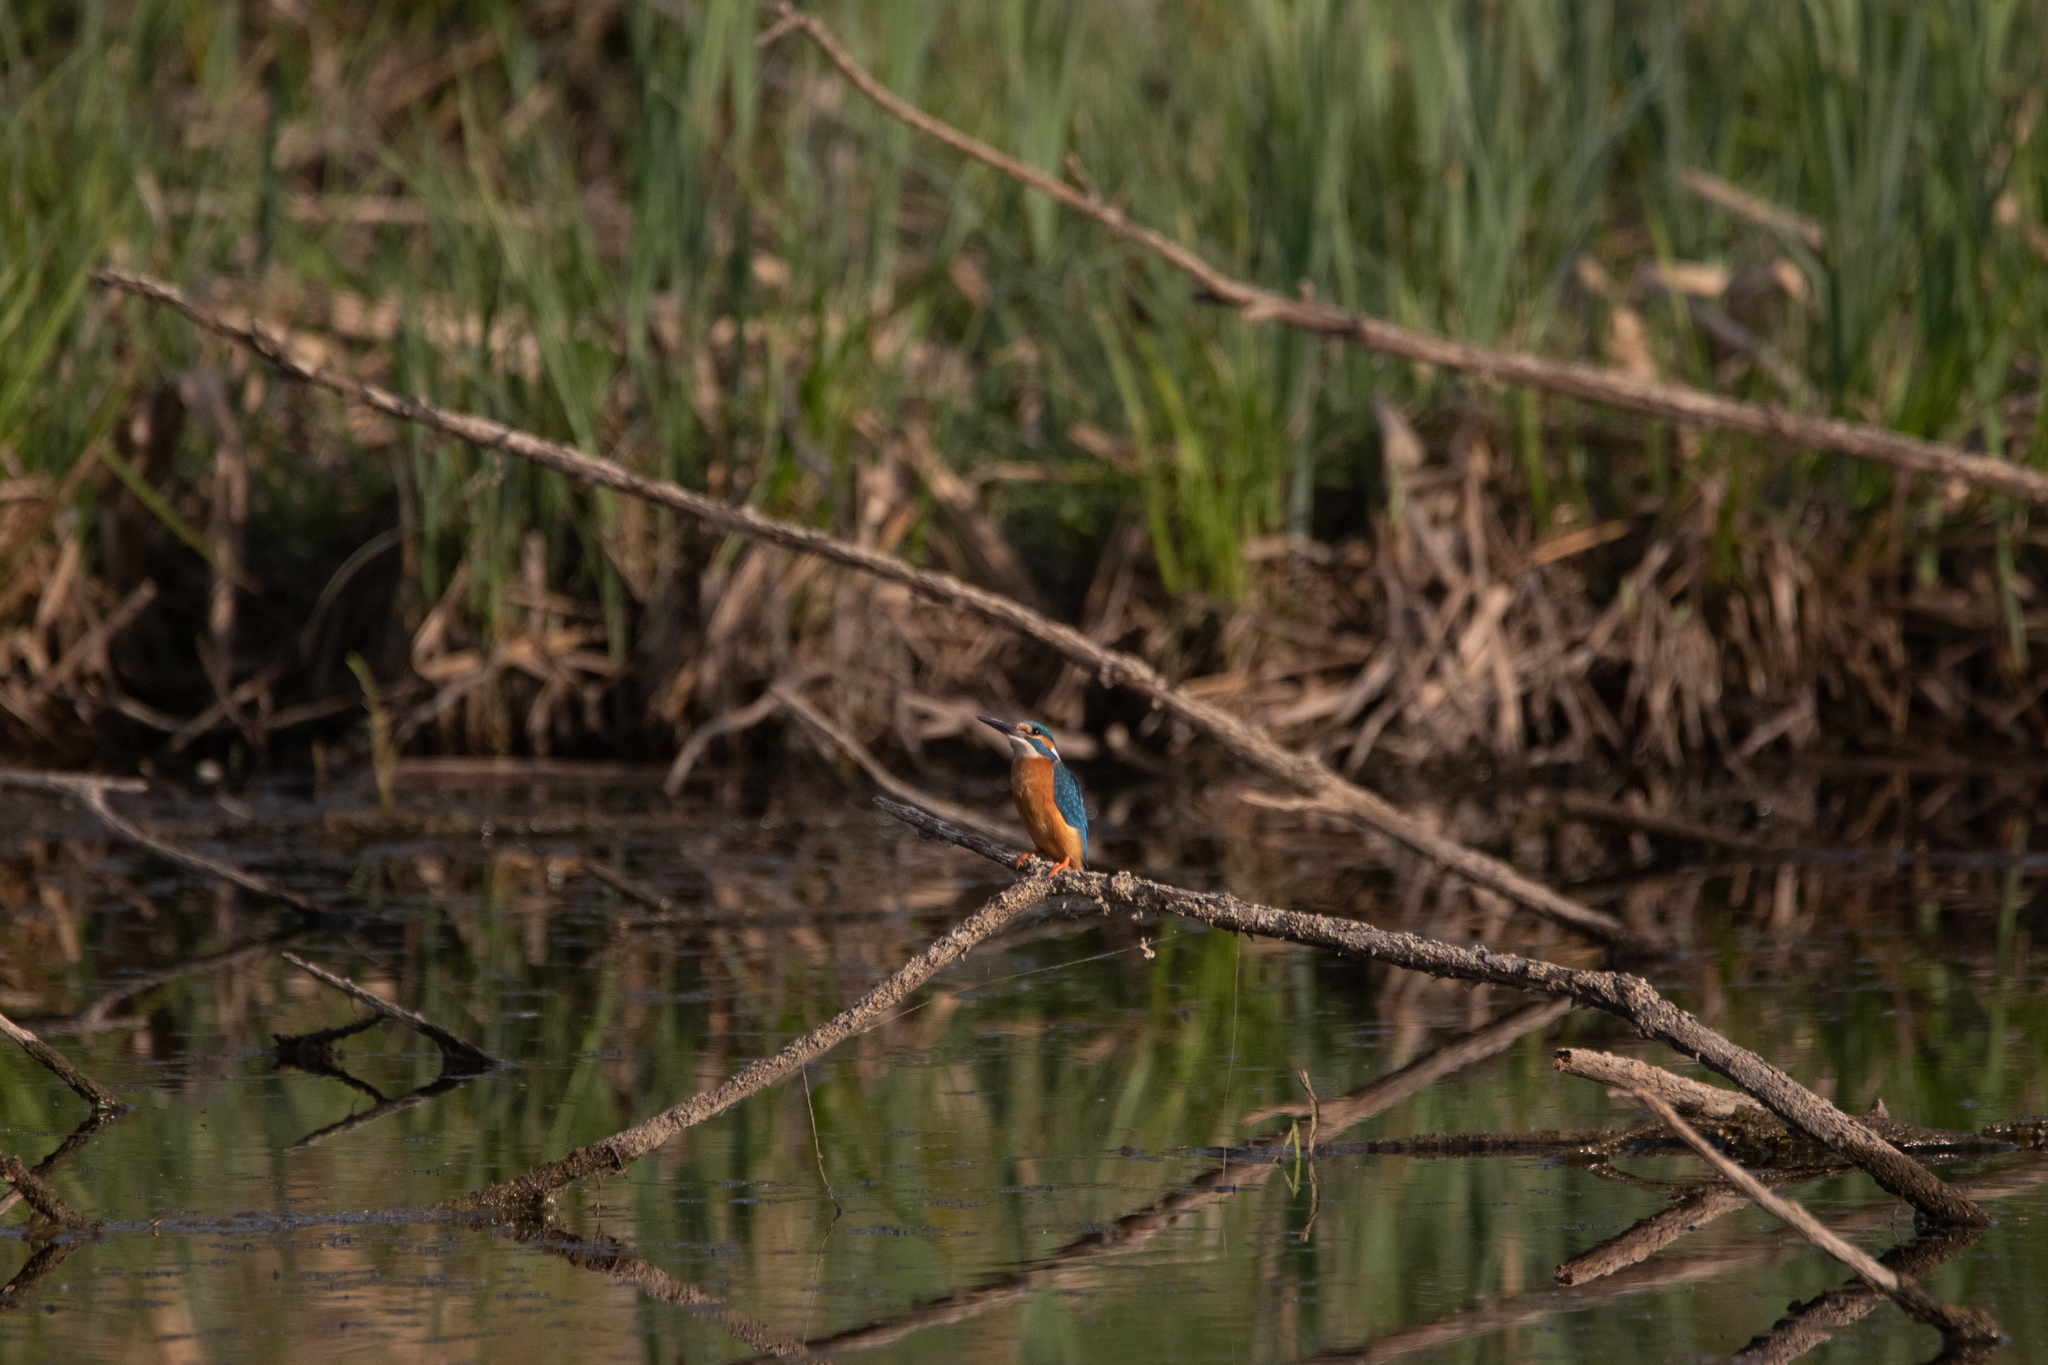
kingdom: Animalia
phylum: Chordata
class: Aves
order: Coraciiformes
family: Alcedinidae
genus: Alcedo
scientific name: Alcedo atthis
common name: Common kingfisher
